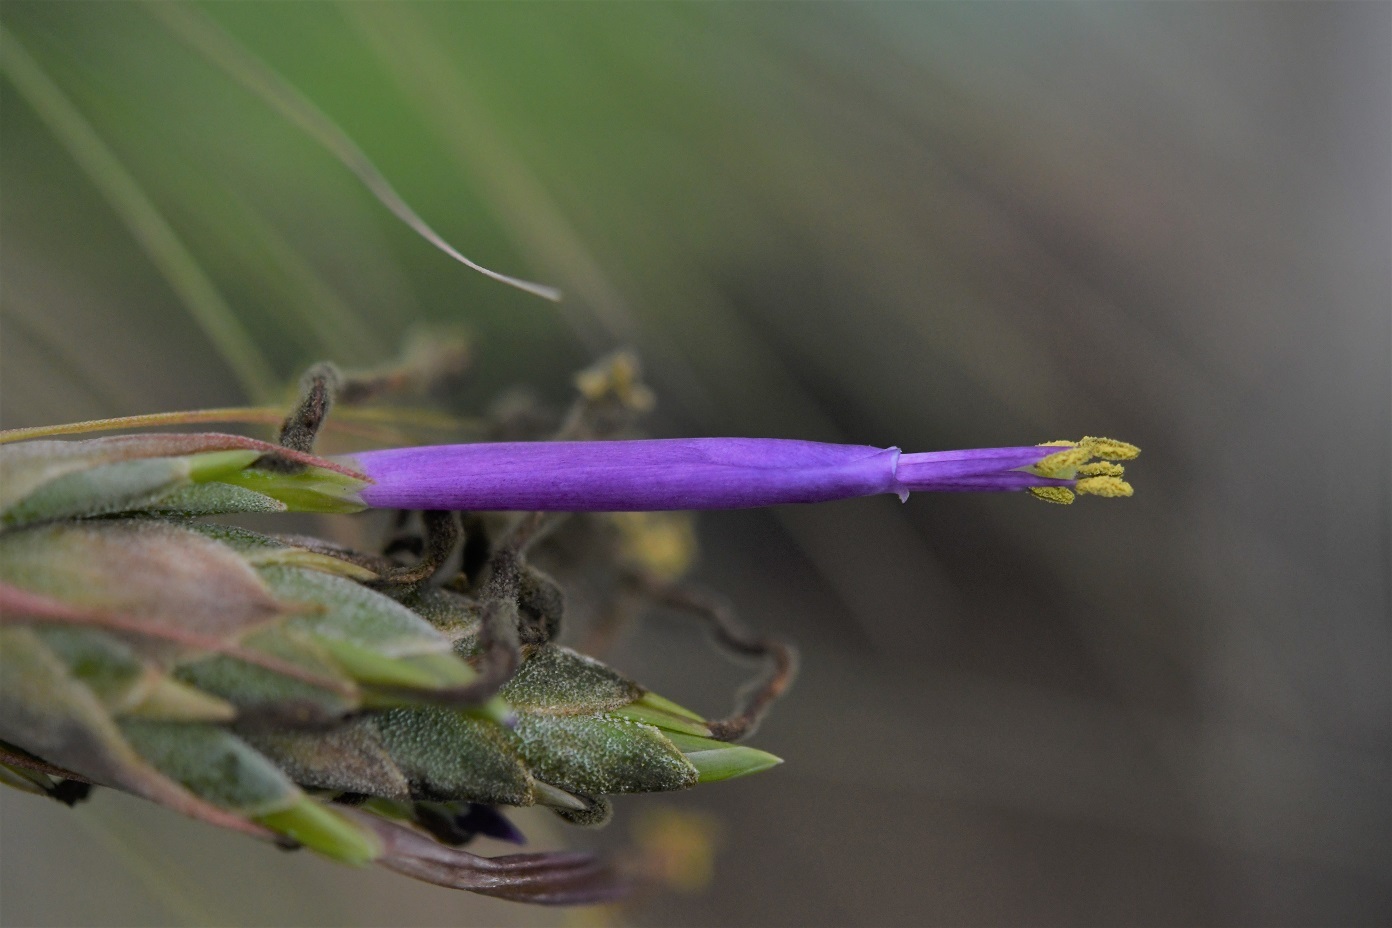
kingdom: Plantae
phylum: Tracheophyta
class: Liliopsida
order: Poales
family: Bromeliaceae
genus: Tillandsia
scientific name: Tillandsia juncea
